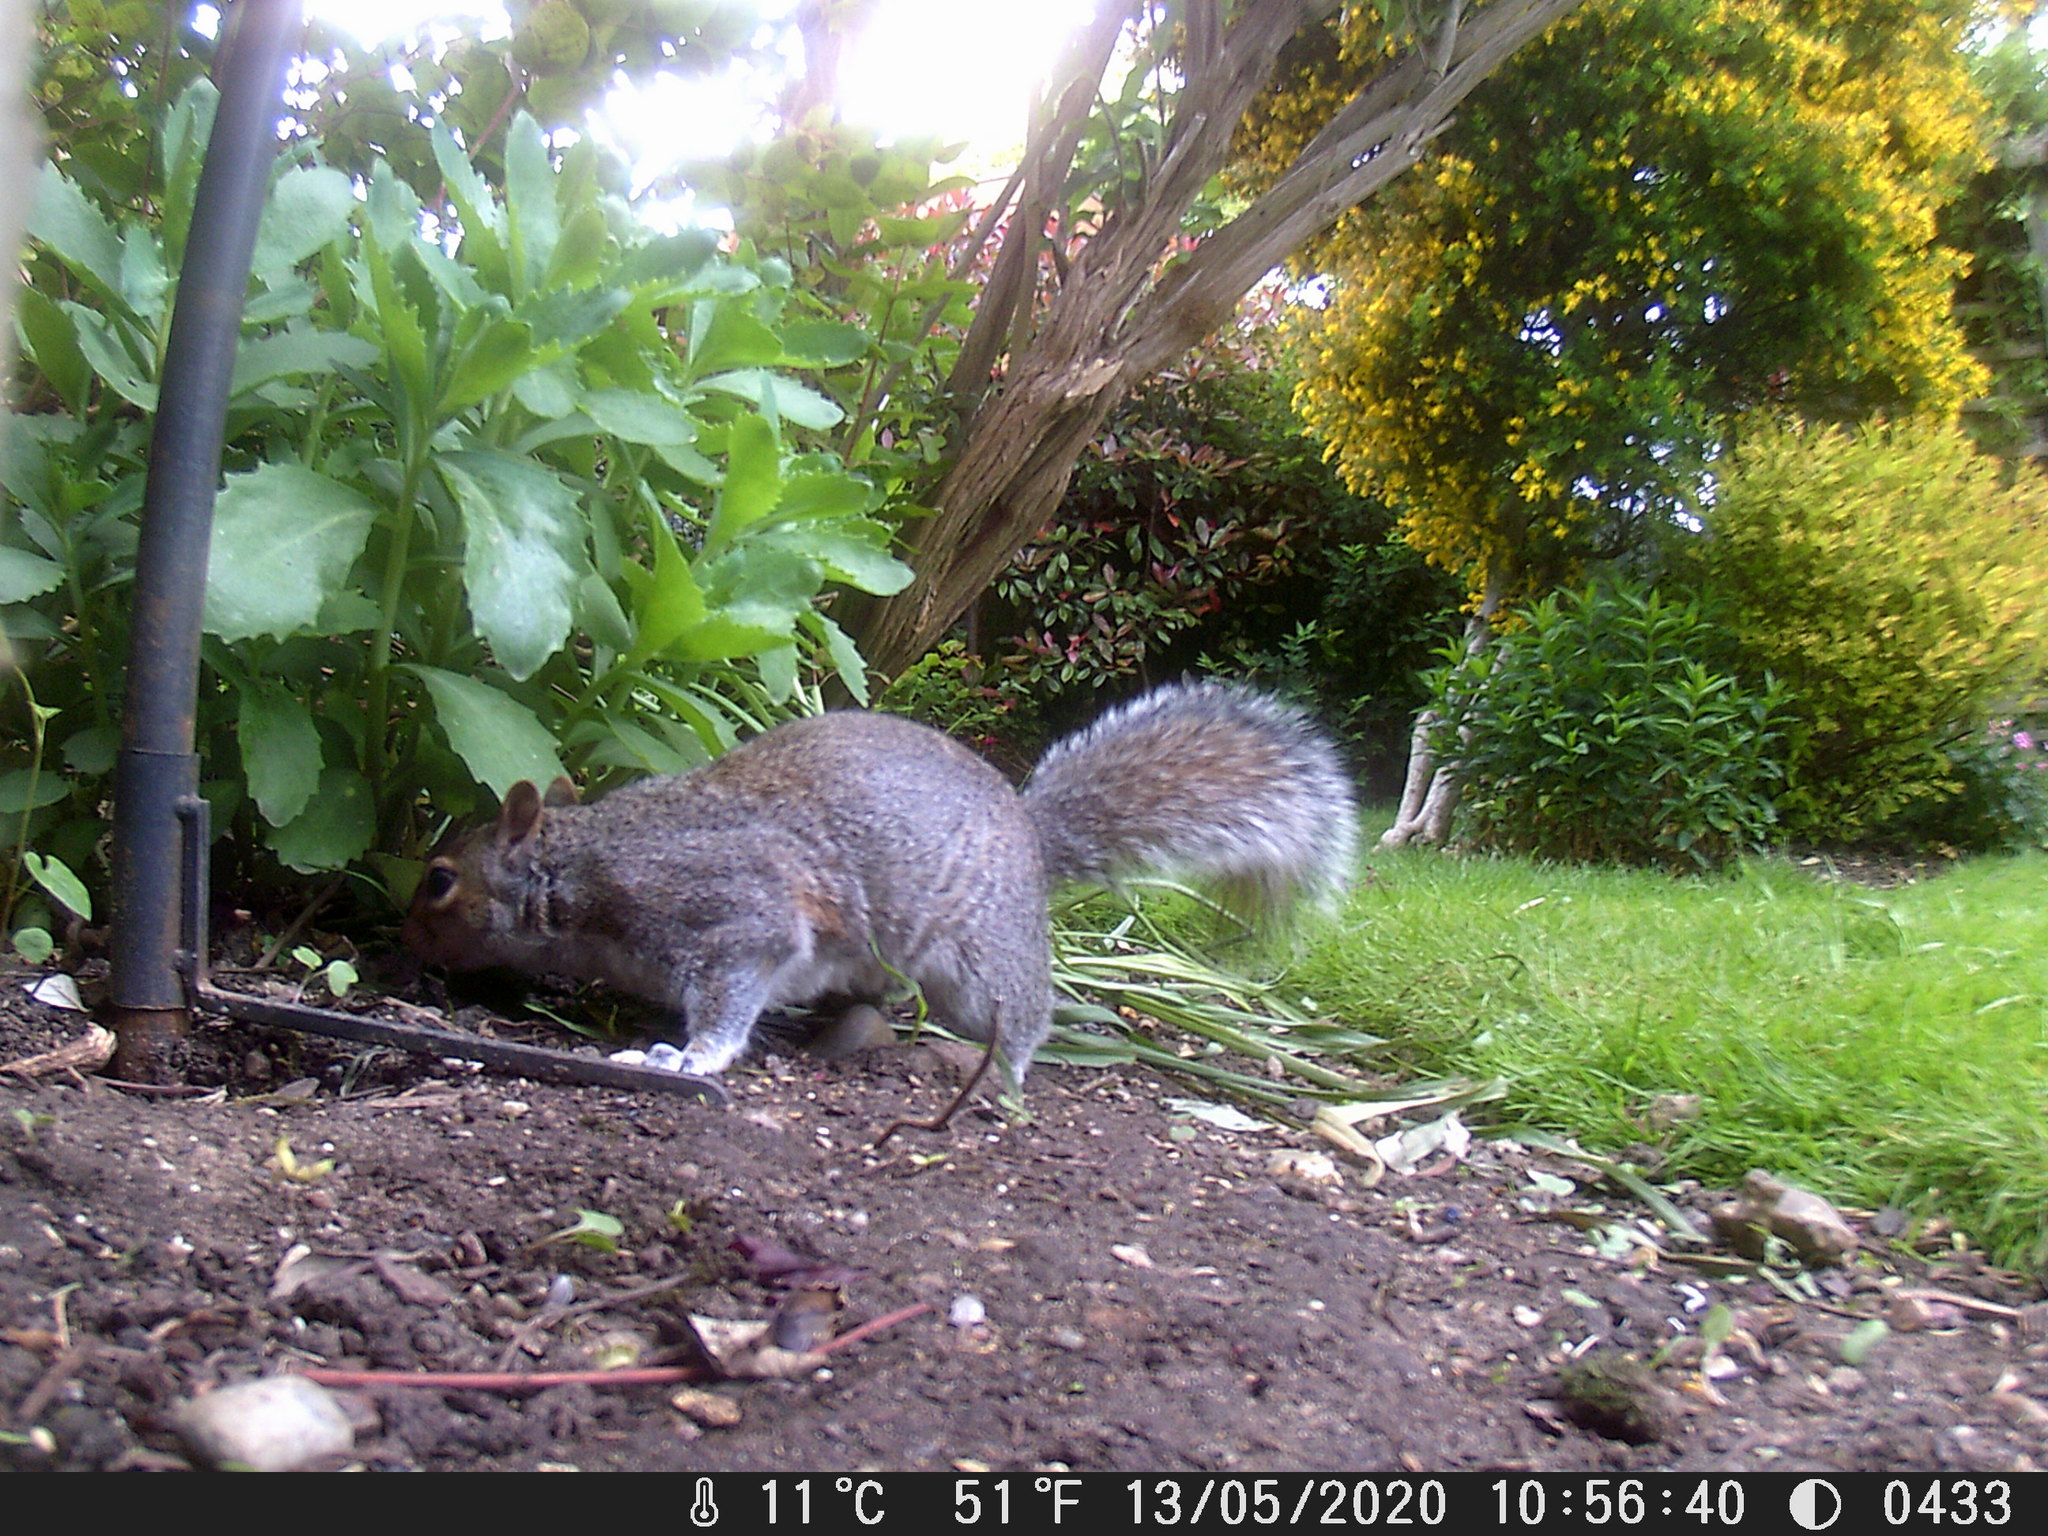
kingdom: Animalia
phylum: Chordata
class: Mammalia
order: Rodentia
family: Sciuridae
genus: Sciurus
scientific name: Sciurus carolinensis
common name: Eastern gray squirrel
